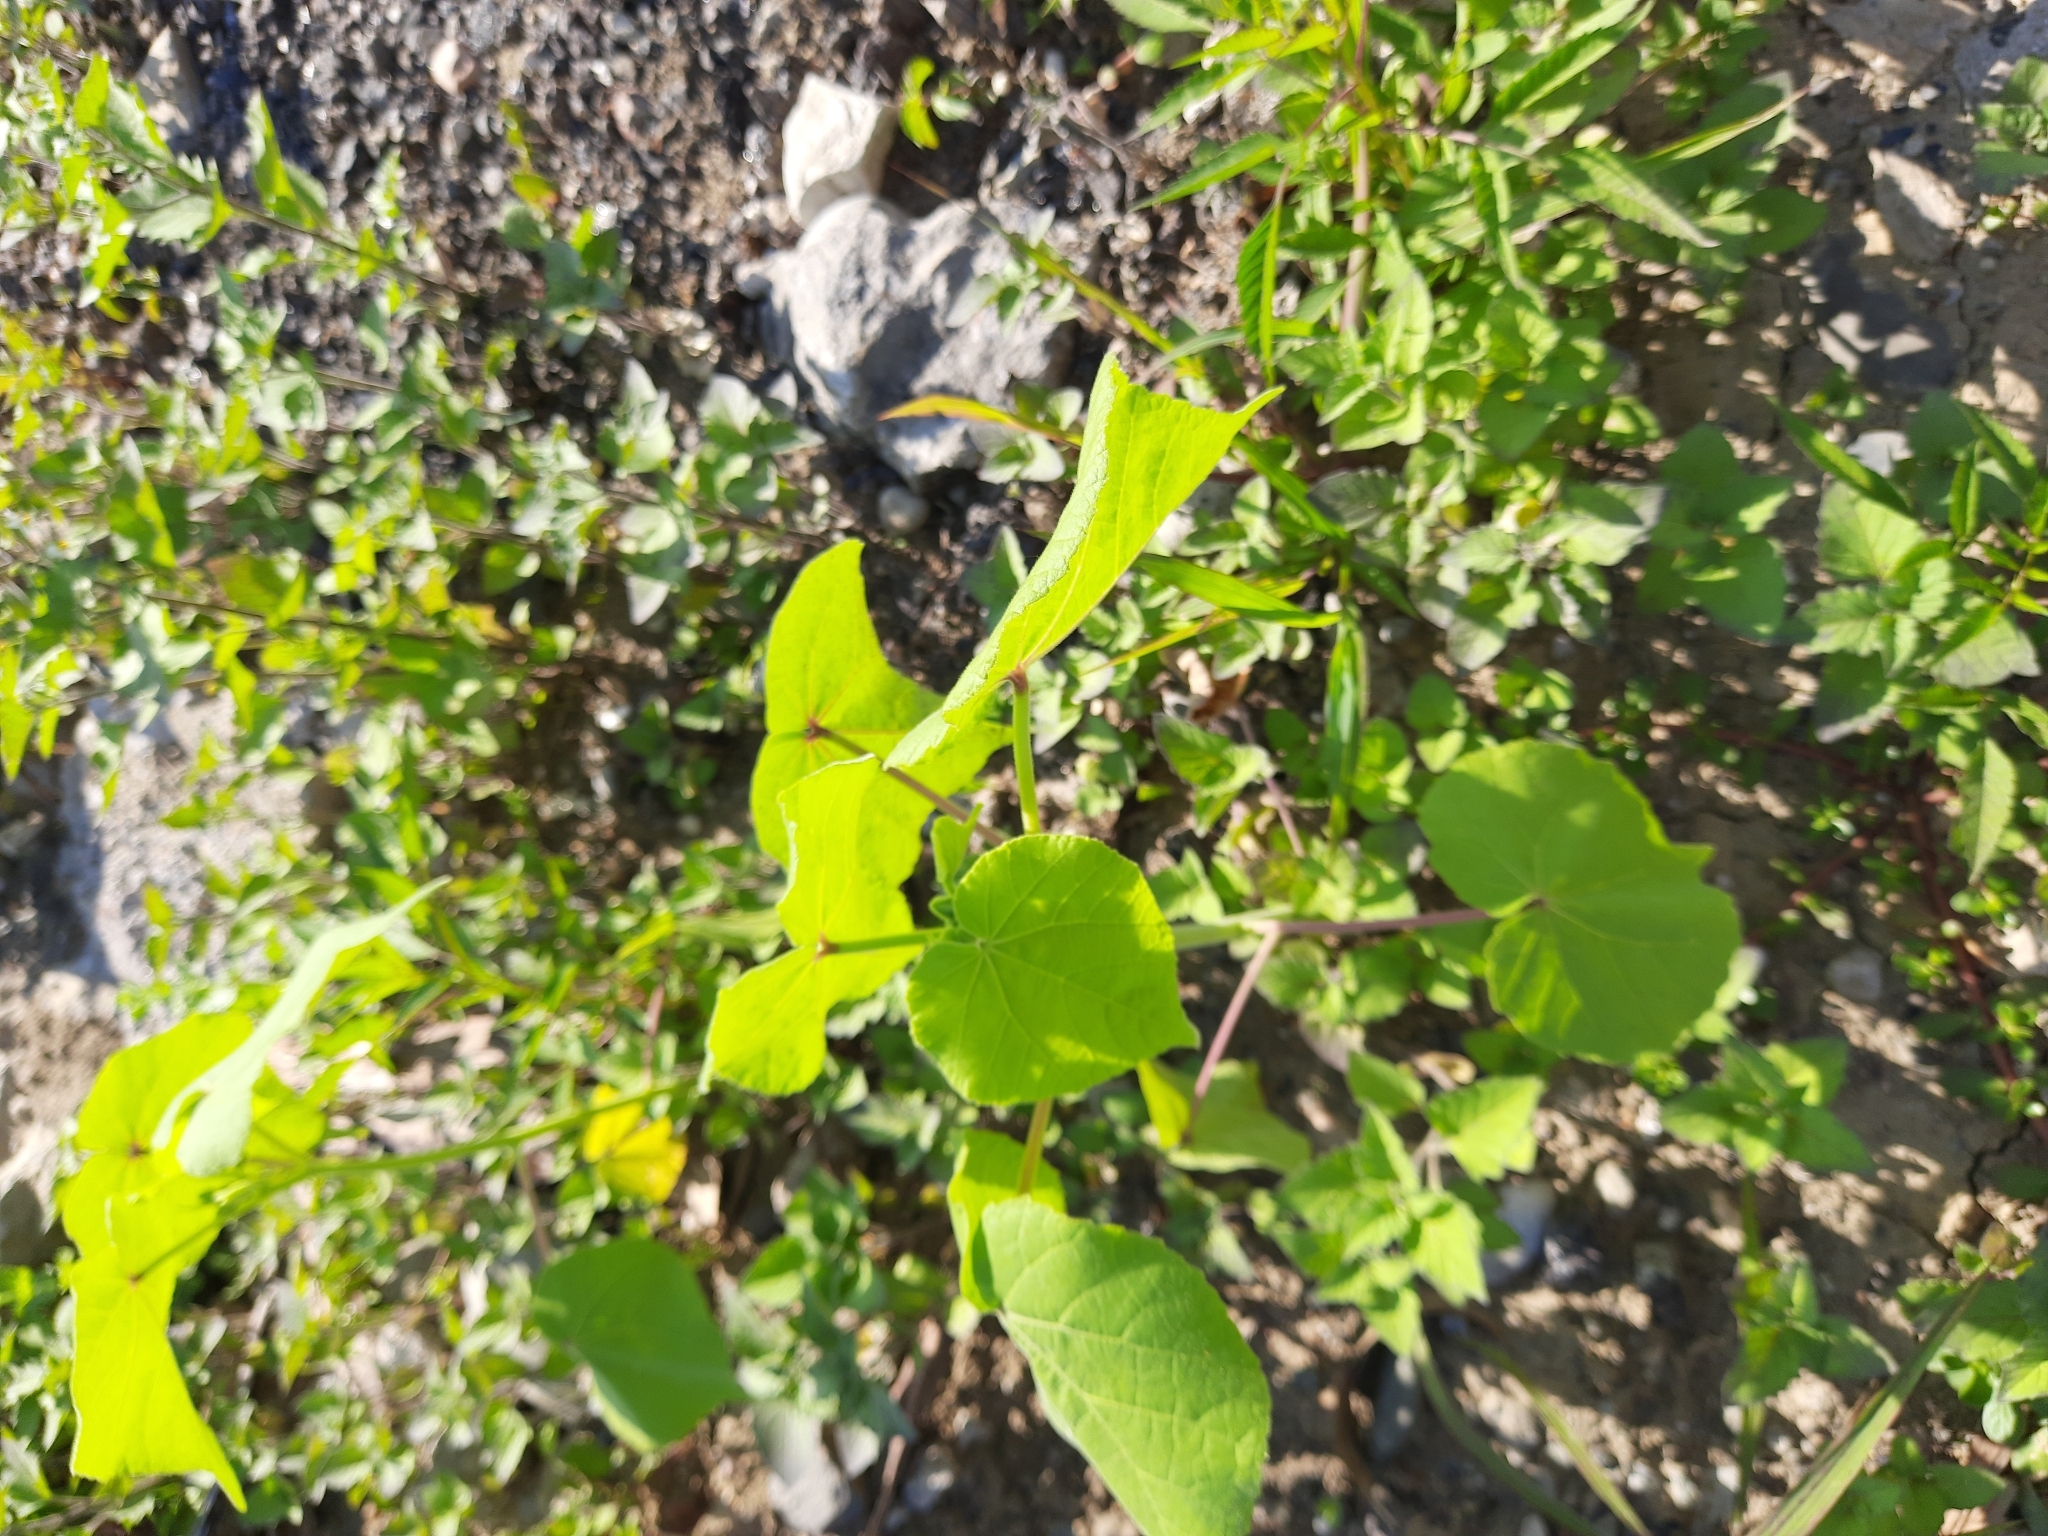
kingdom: Plantae
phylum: Tracheophyta
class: Magnoliopsida
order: Malvales
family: Malvaceae
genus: Abutilon
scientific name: Abutilon theophrasti
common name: Velvetleaf
